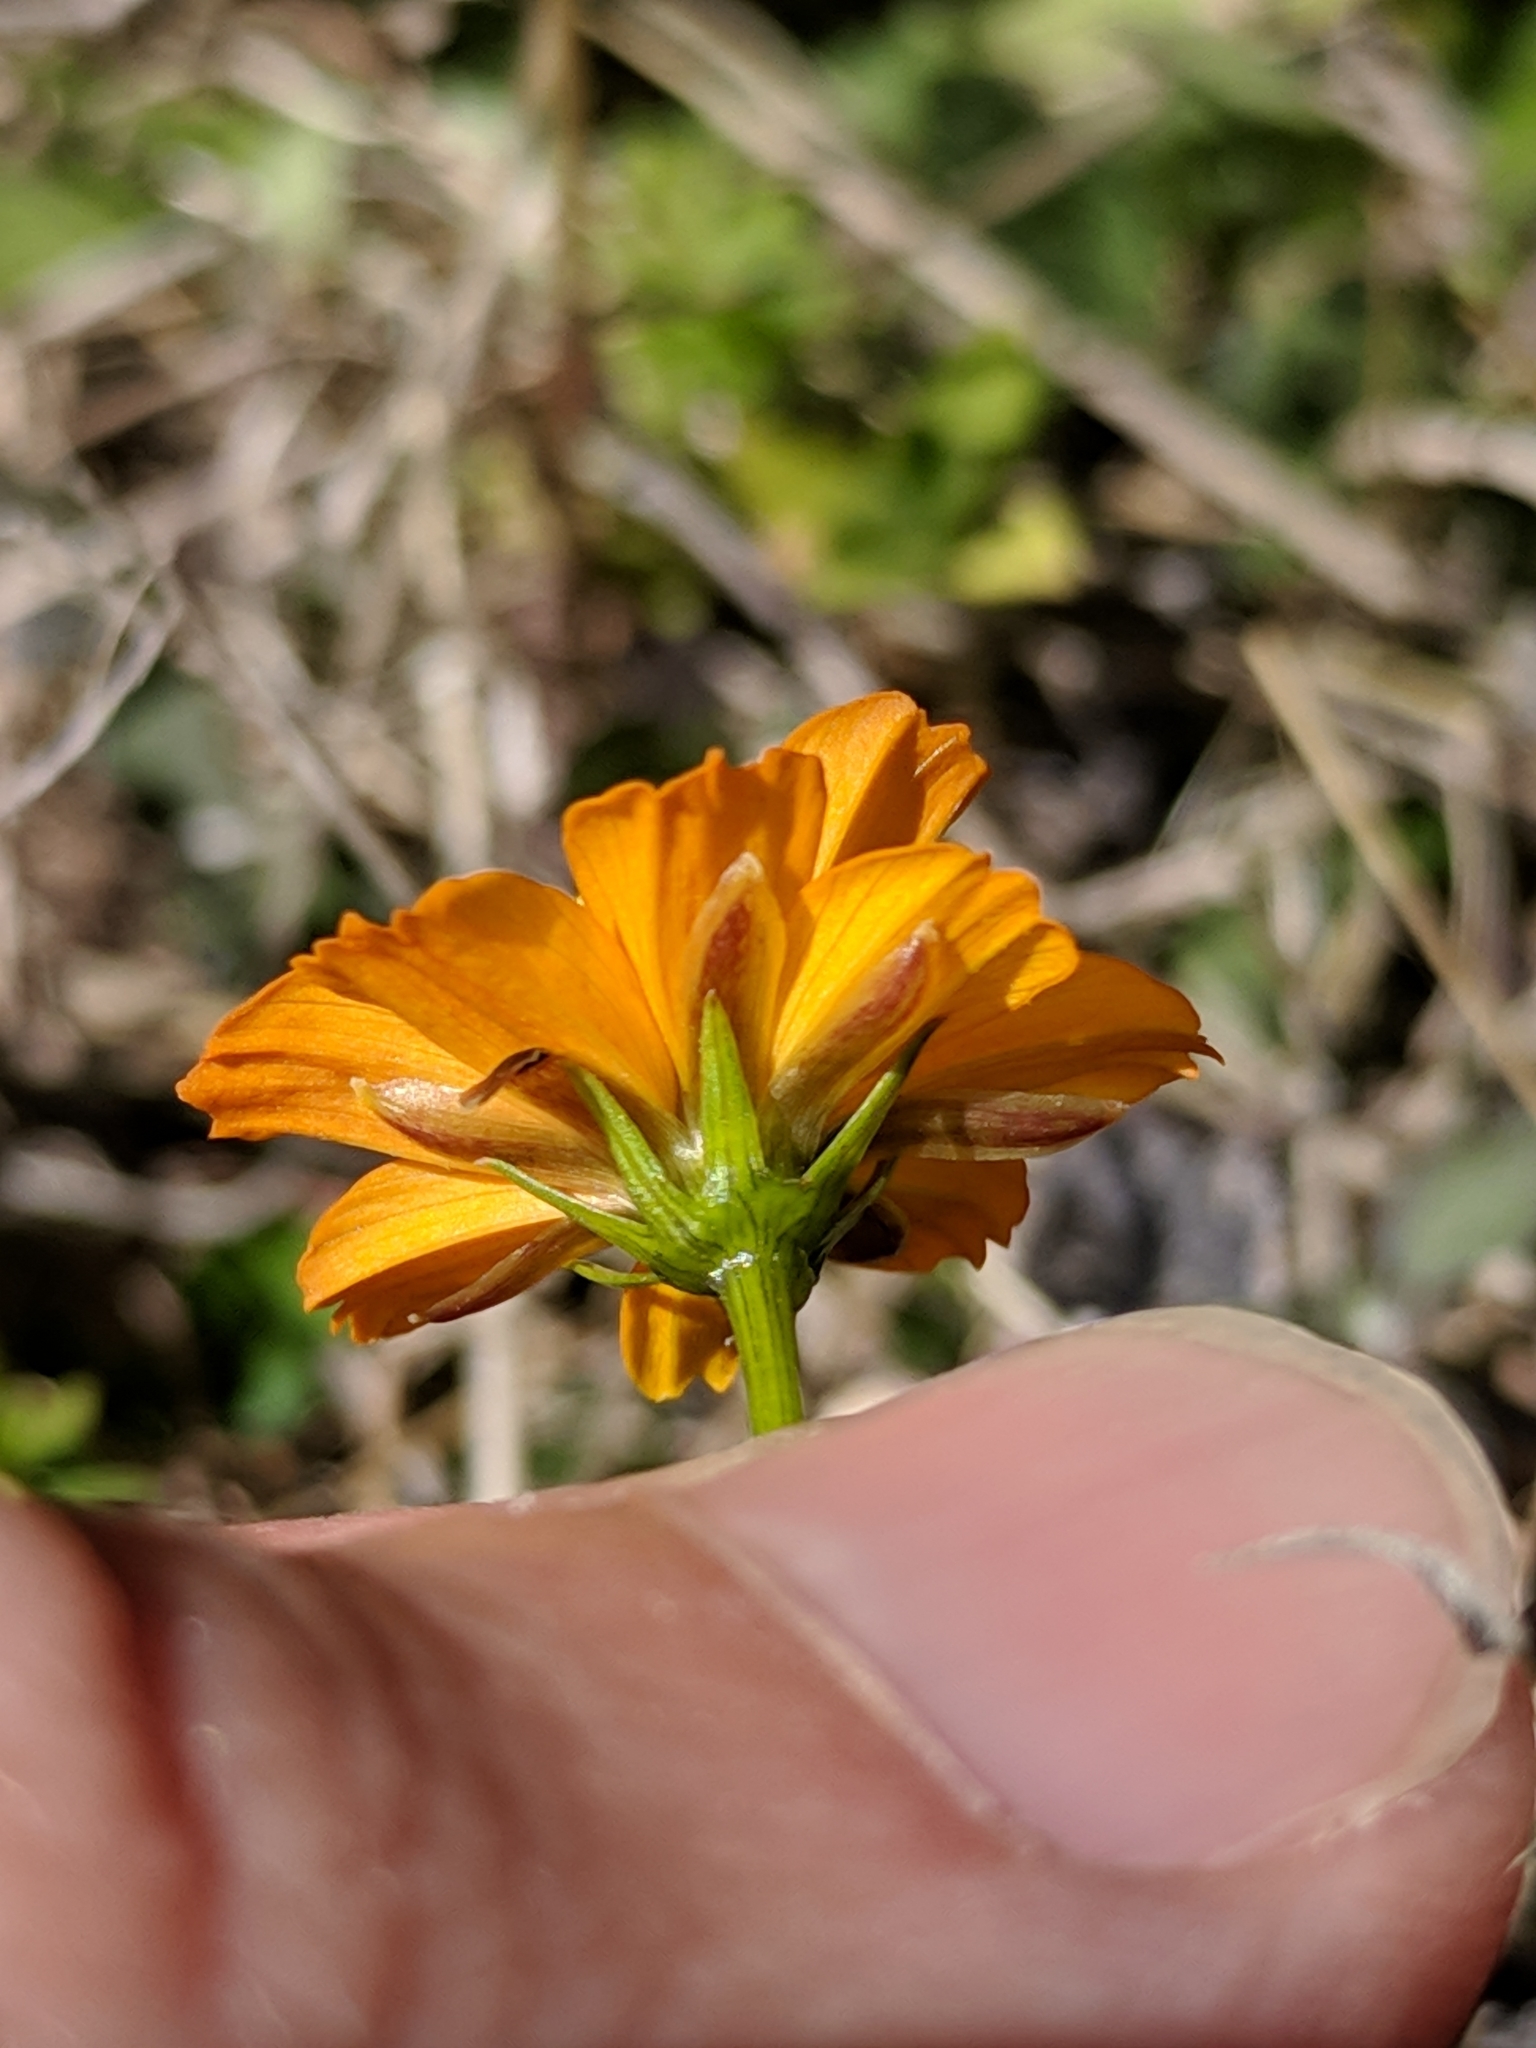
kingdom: Plantae
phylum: Tracheophyta
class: Magnoliopsida
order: Asterales
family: Asteraceae
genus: Cosmos
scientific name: Cosmos sulphureus
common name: Sulphur cosmos
